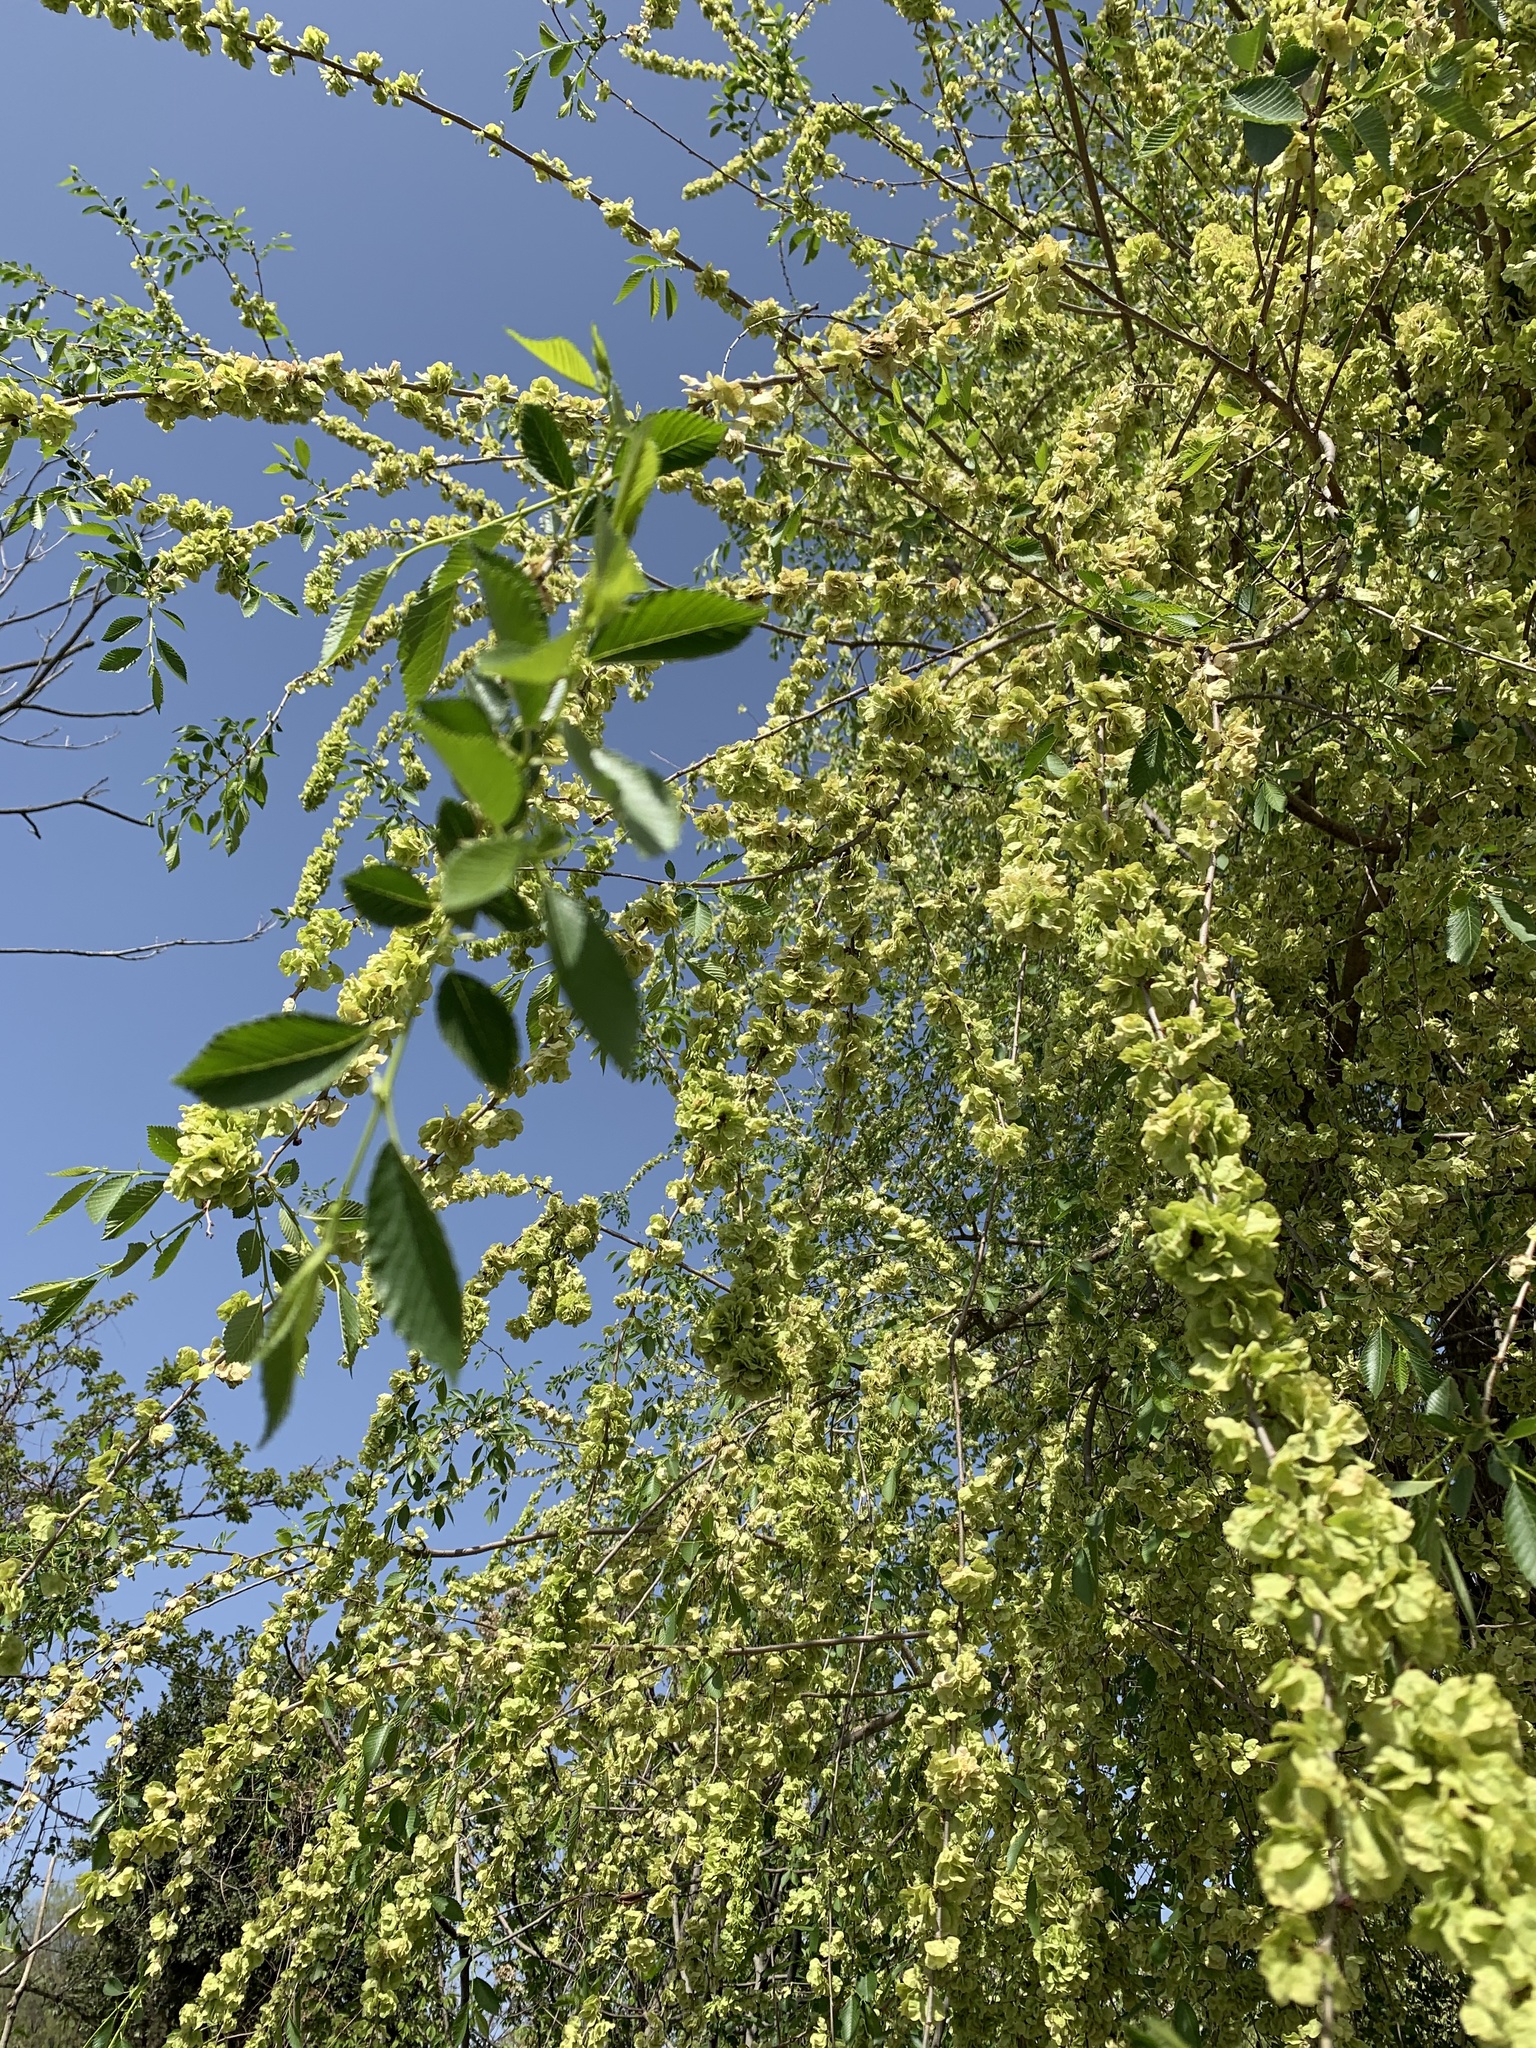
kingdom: Plantae
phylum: Tracheophyta
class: Magnoliopsida
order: Rosales
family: Ulmaceae
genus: Ulmus
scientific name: Ulmus pumila
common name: Siberian elm
